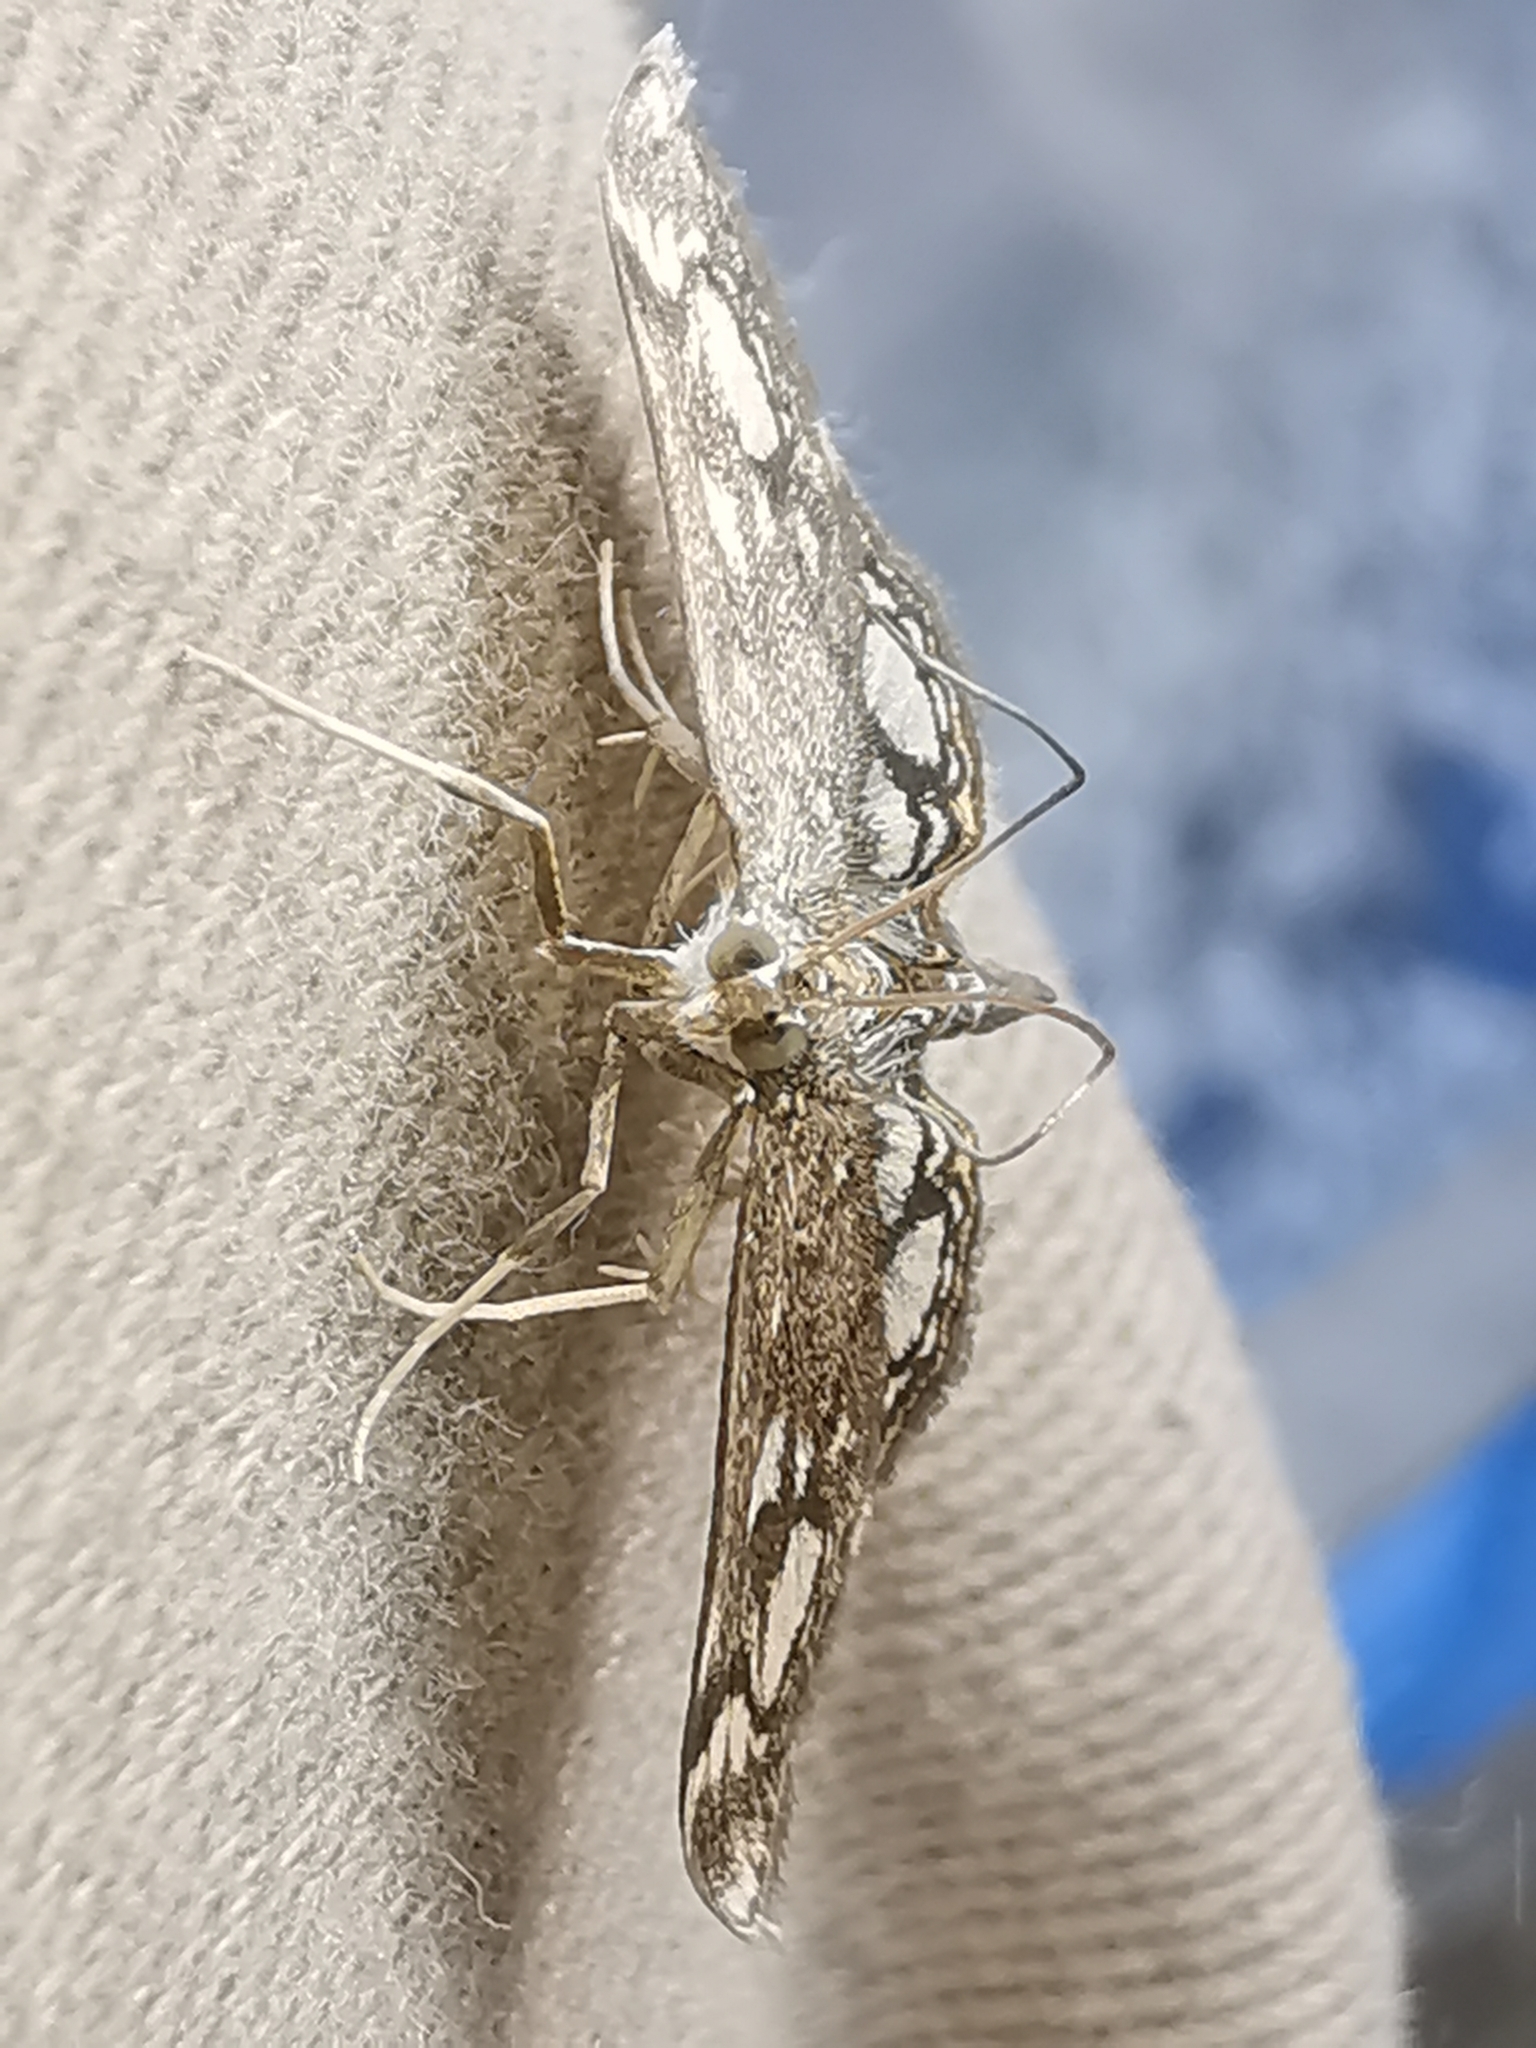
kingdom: Animalia
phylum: Arthropoda
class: Insecta
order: Lepidoptera
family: Crambidae
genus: Anania
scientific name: Anania coronata
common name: Elder pearl
